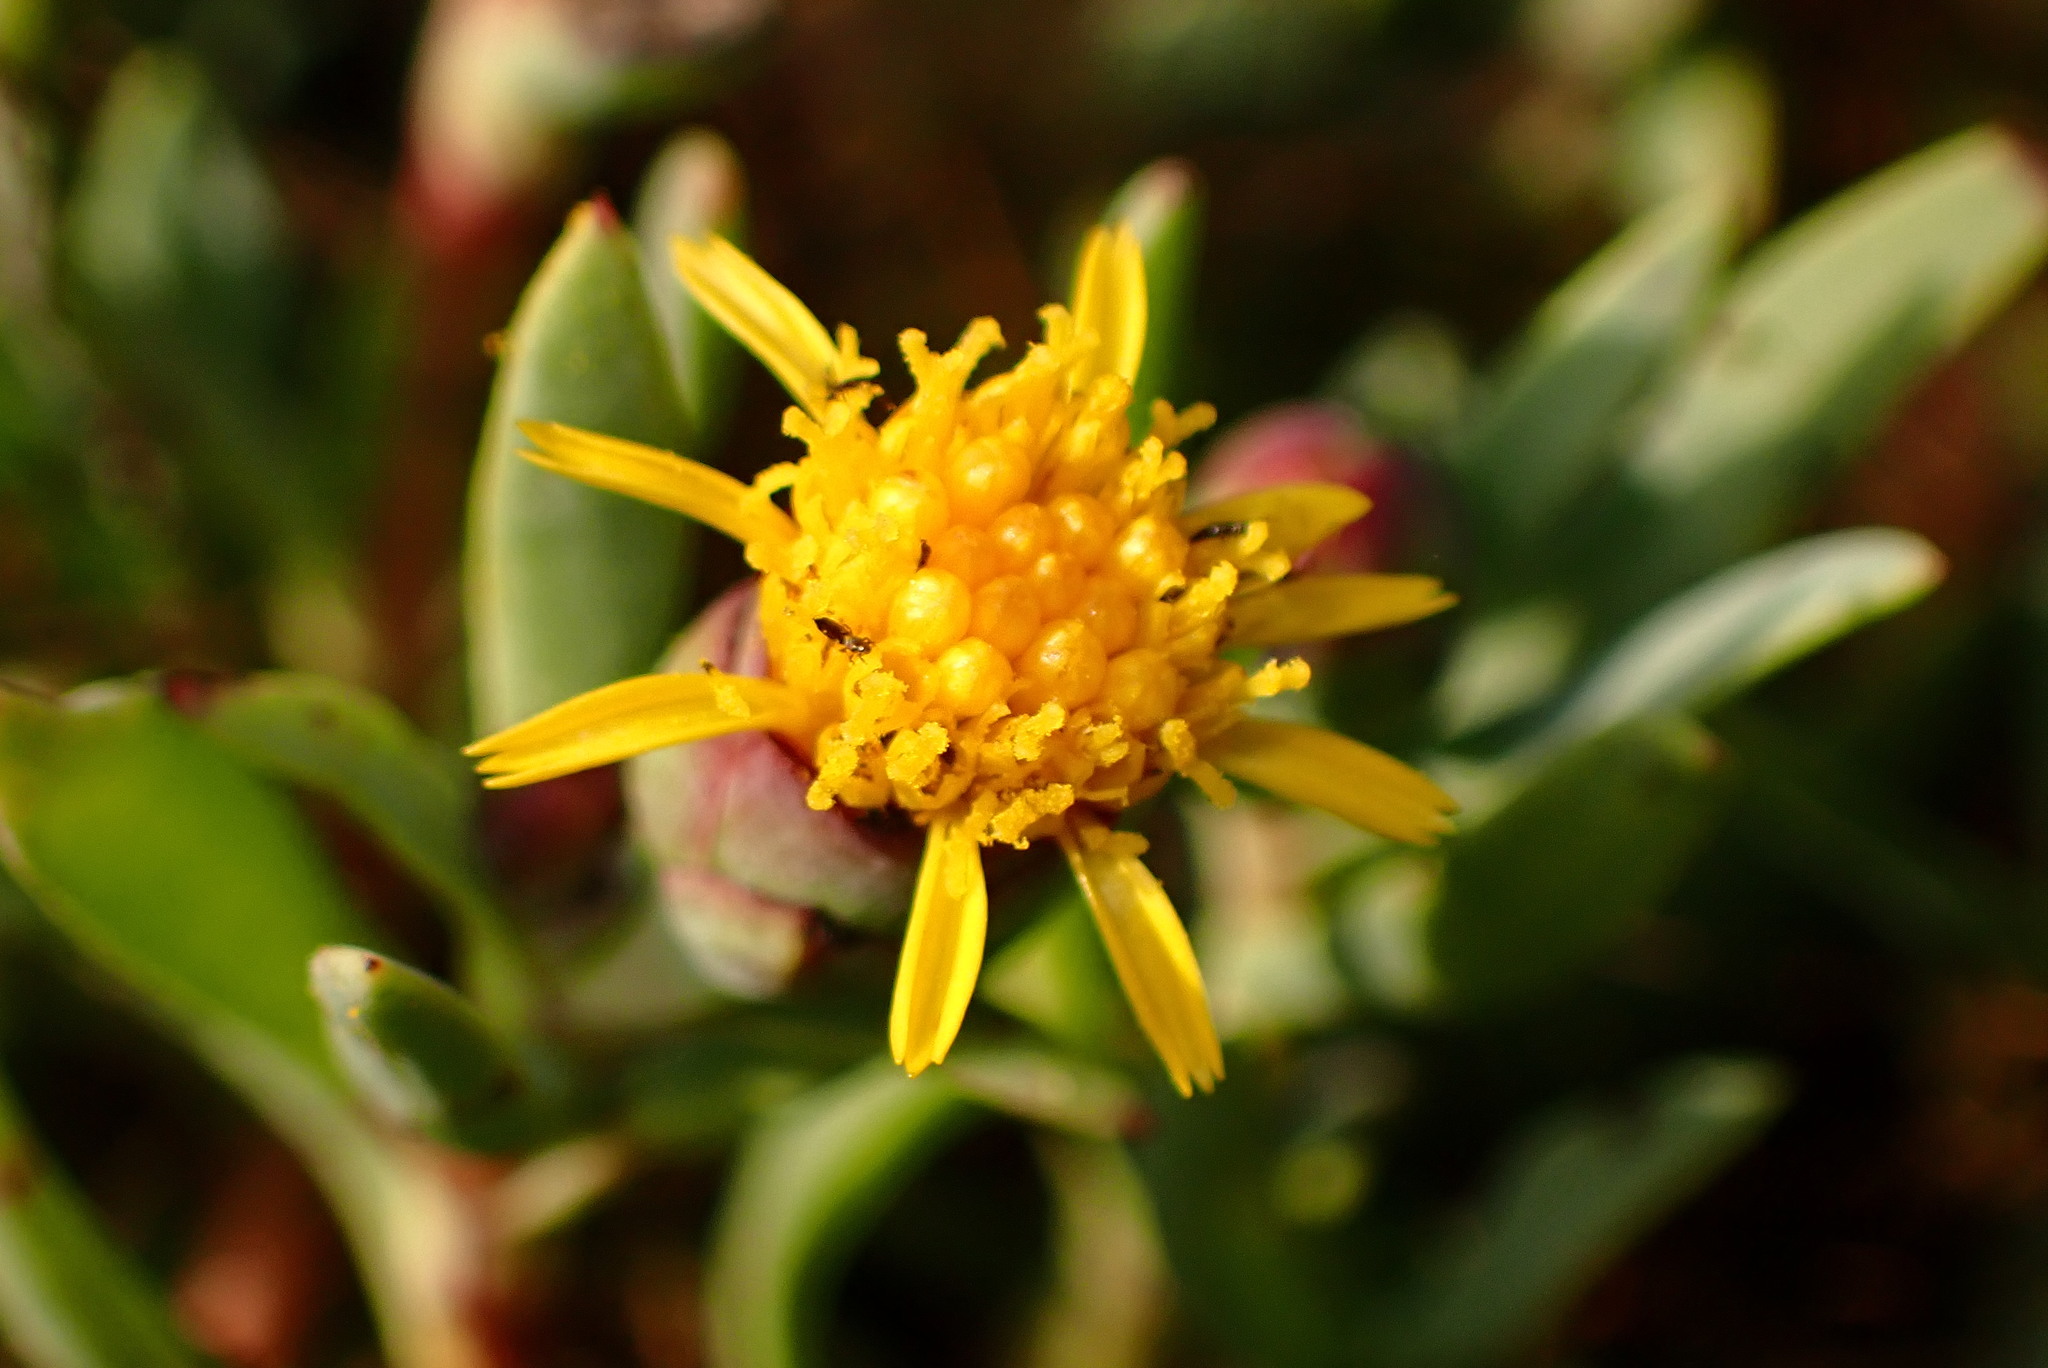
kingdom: Plantae
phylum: Tracheophyta
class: Magnoliopsida
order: Asterales
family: Asteraceae
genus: Jaumea
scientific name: Jaumea carnosa
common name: Fleshy jaumea
